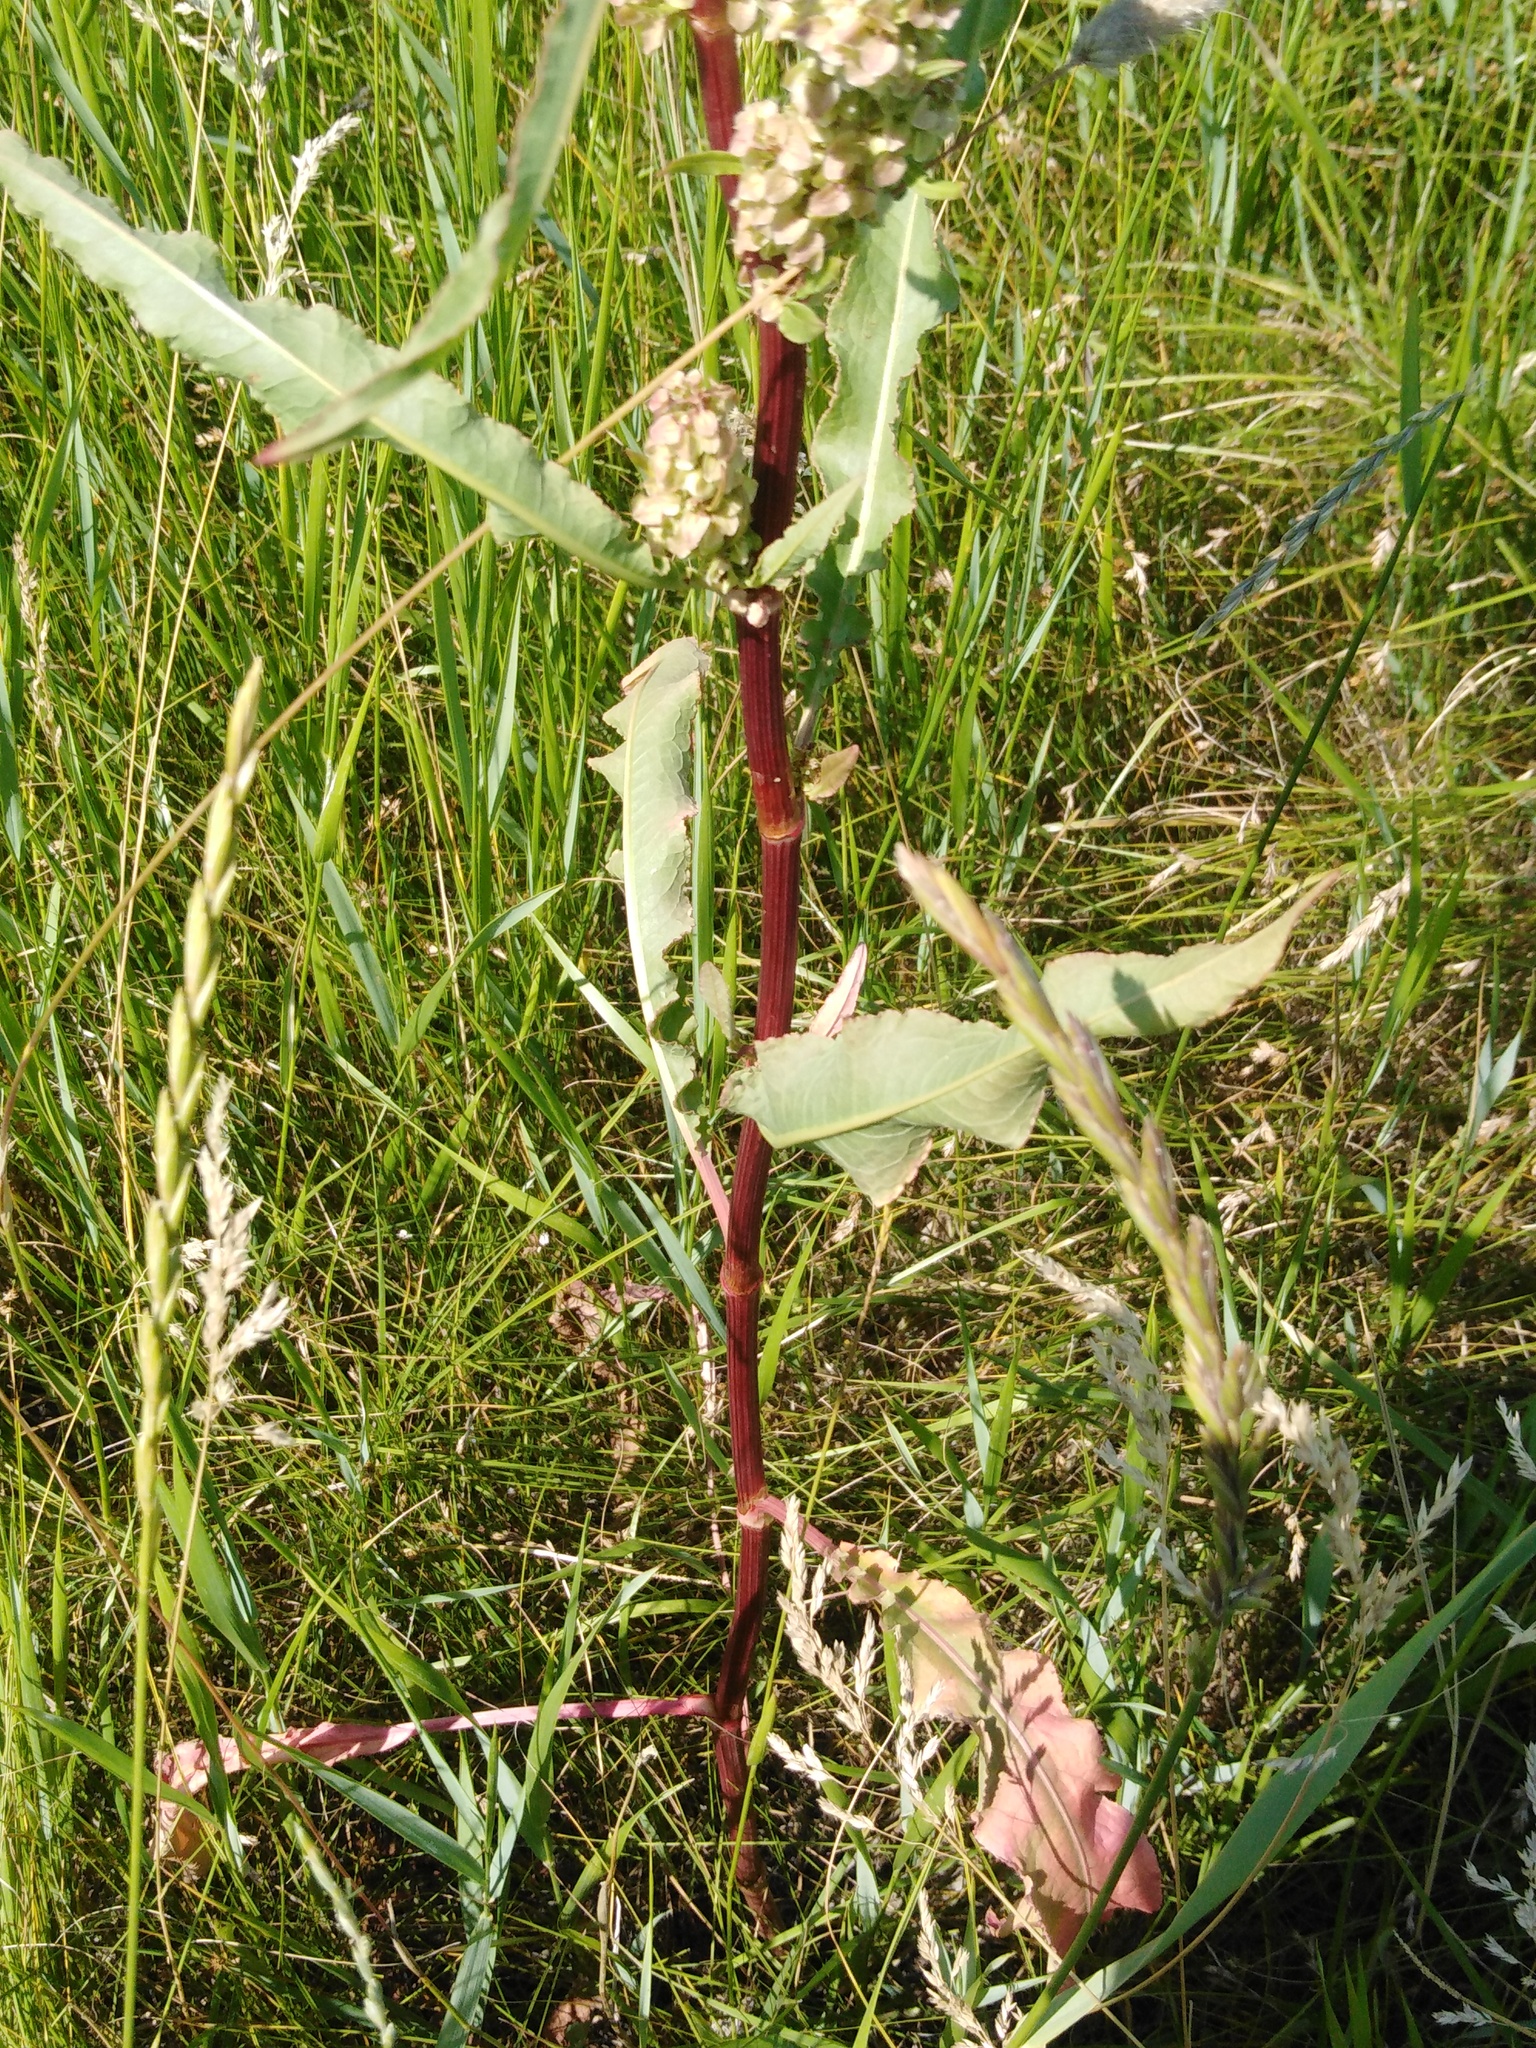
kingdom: Plantae
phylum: Tracheophyta
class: Magnoliopsida
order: Caryophyllales
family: Polygonaceae
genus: Rumex
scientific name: Rumex pseudonatronatus
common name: Field dock
